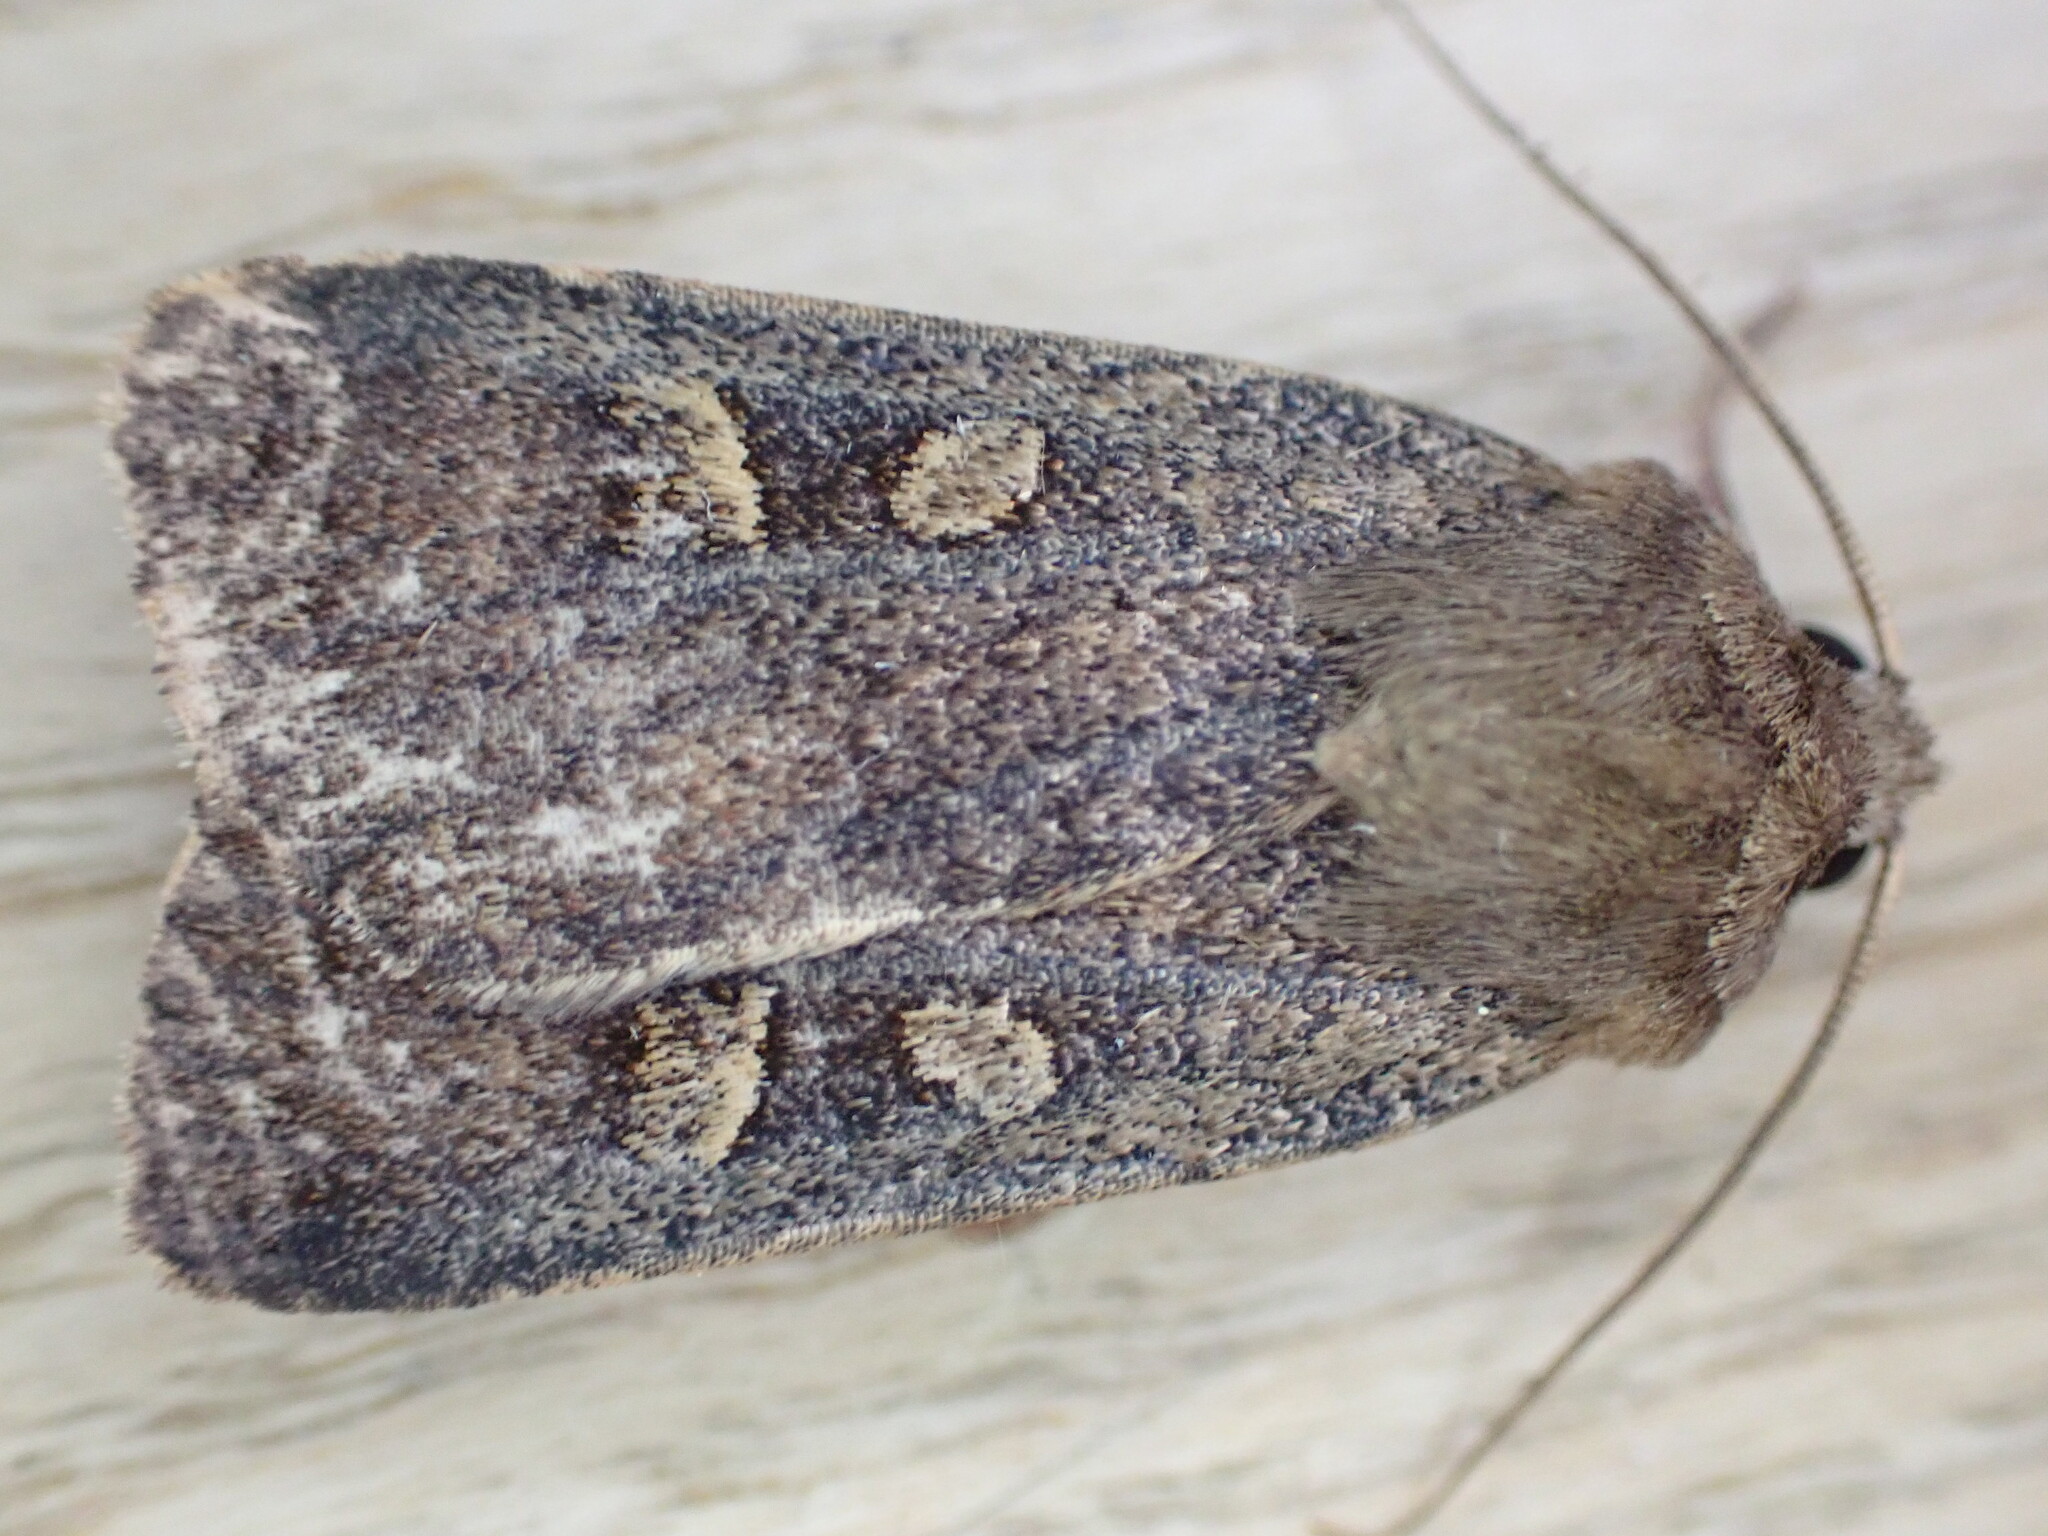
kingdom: Animalia
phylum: Arthropoda
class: Insecta
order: Lepidoptera
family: Noctuidae
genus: Xestia
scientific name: Xestia xanthographa
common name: Square-spot rustic
